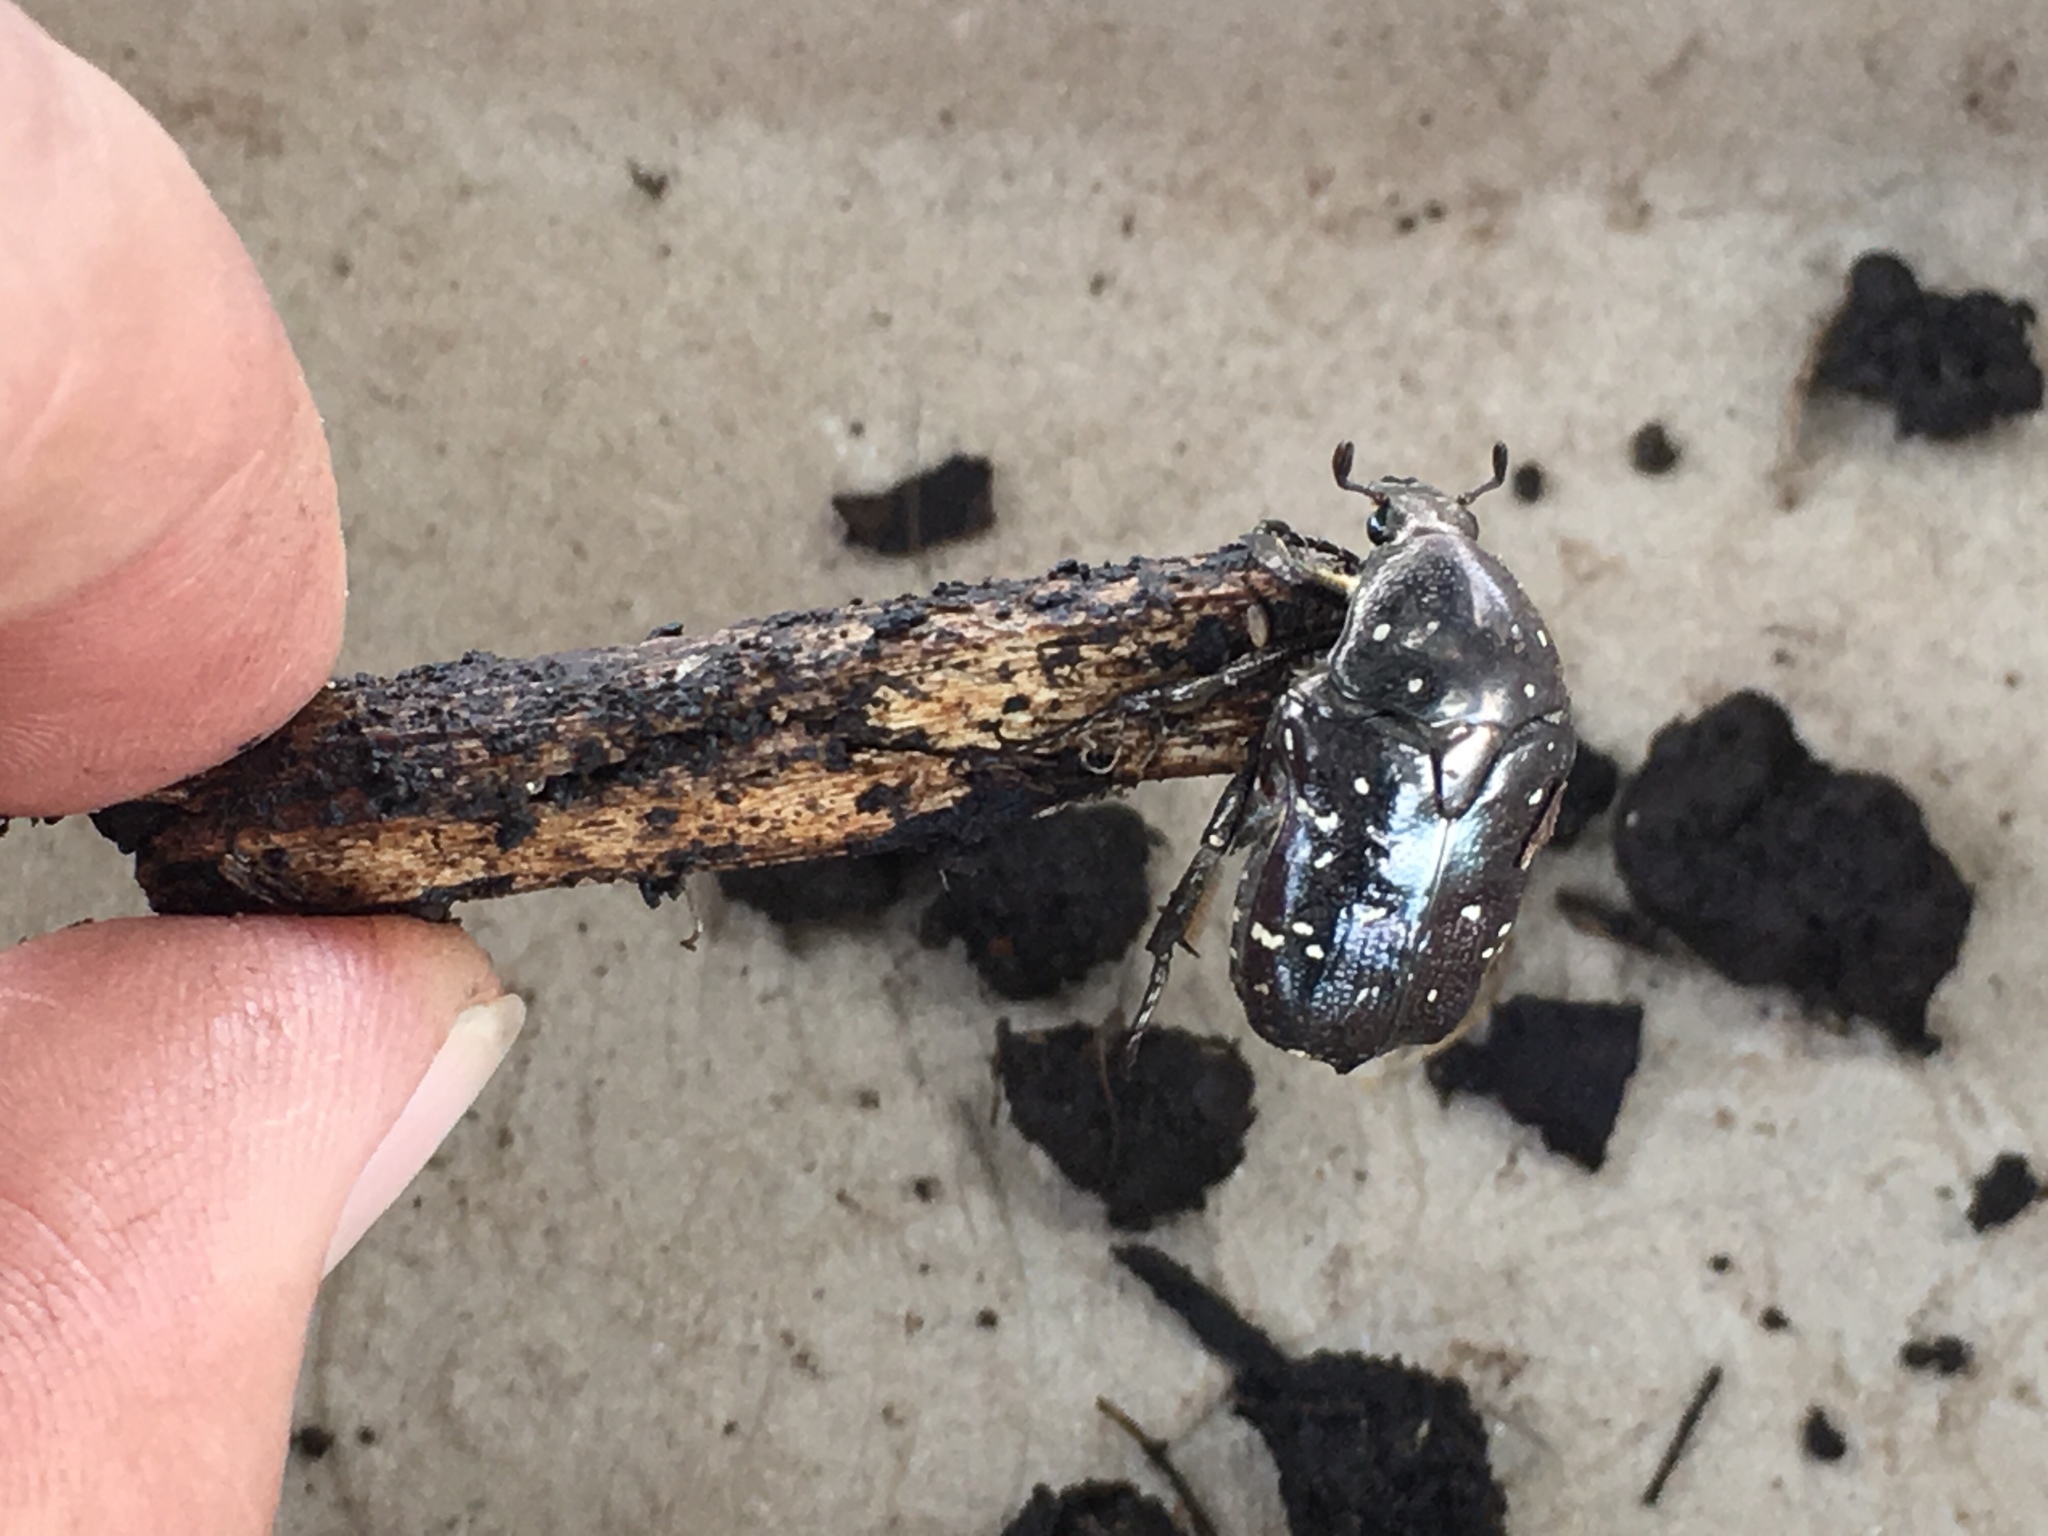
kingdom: Animalia
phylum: Arthropoda
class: Insecta
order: Coleoptera
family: Scarabaeidae
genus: Protaetia
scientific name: Protaetia fusca
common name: Mango flower beetle
